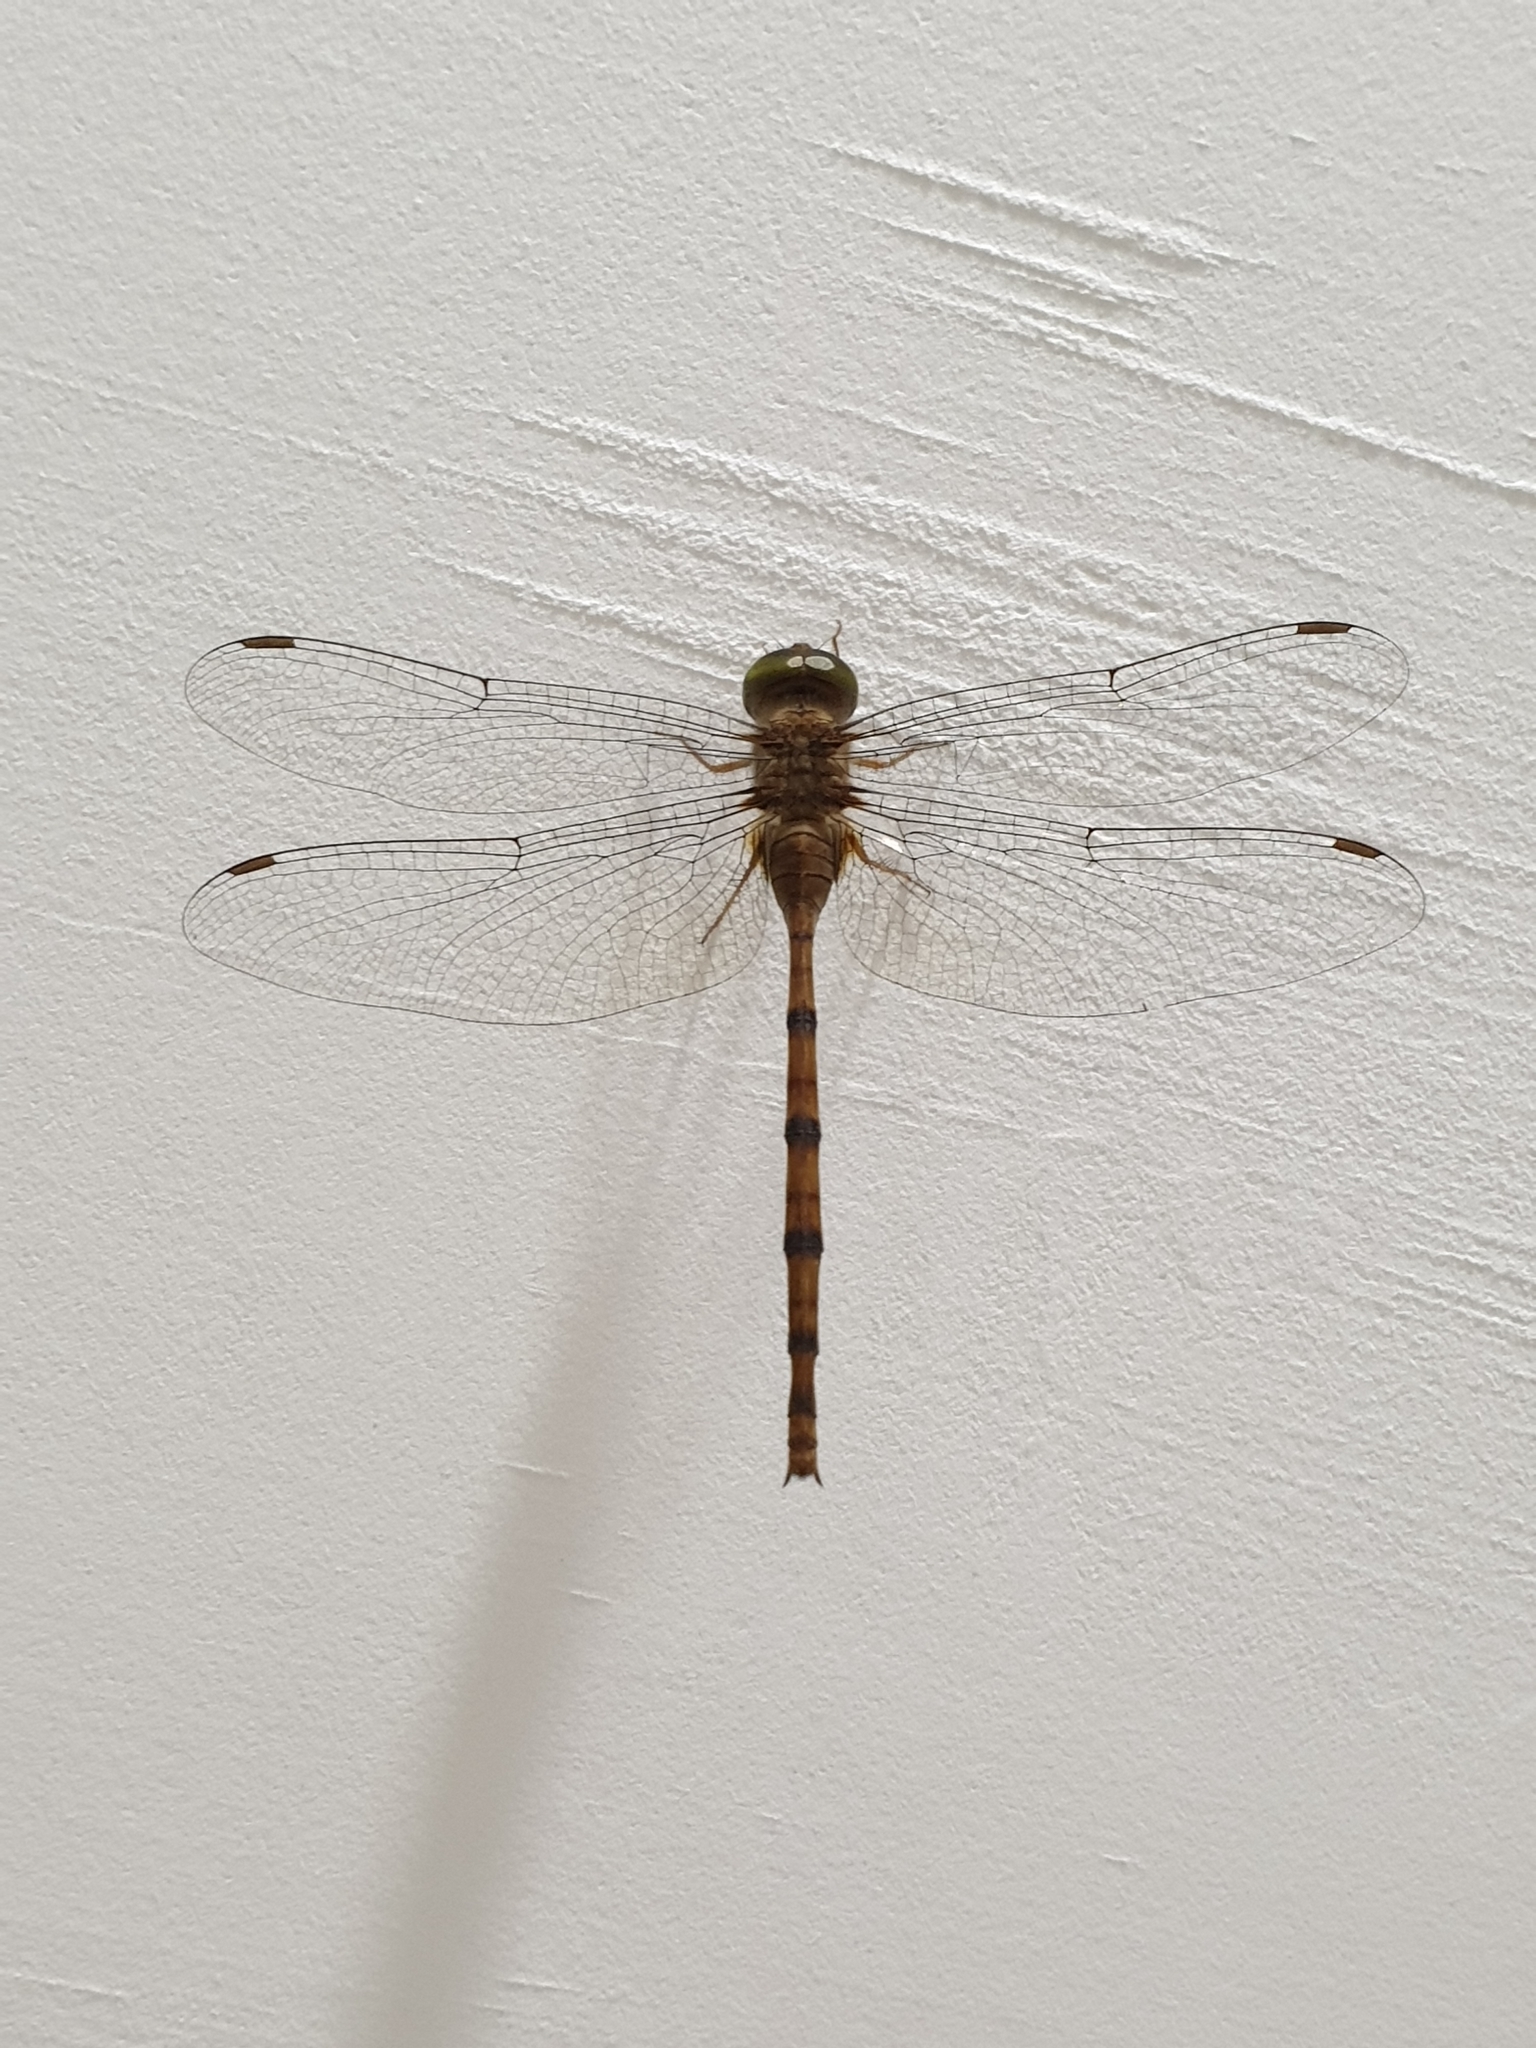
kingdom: Animalia
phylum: Arthropoda
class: Insecta
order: Odonata
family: Libellulidae
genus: Zyxomma
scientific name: Zyxomma petiolatum
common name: Dingy dusk-darter
